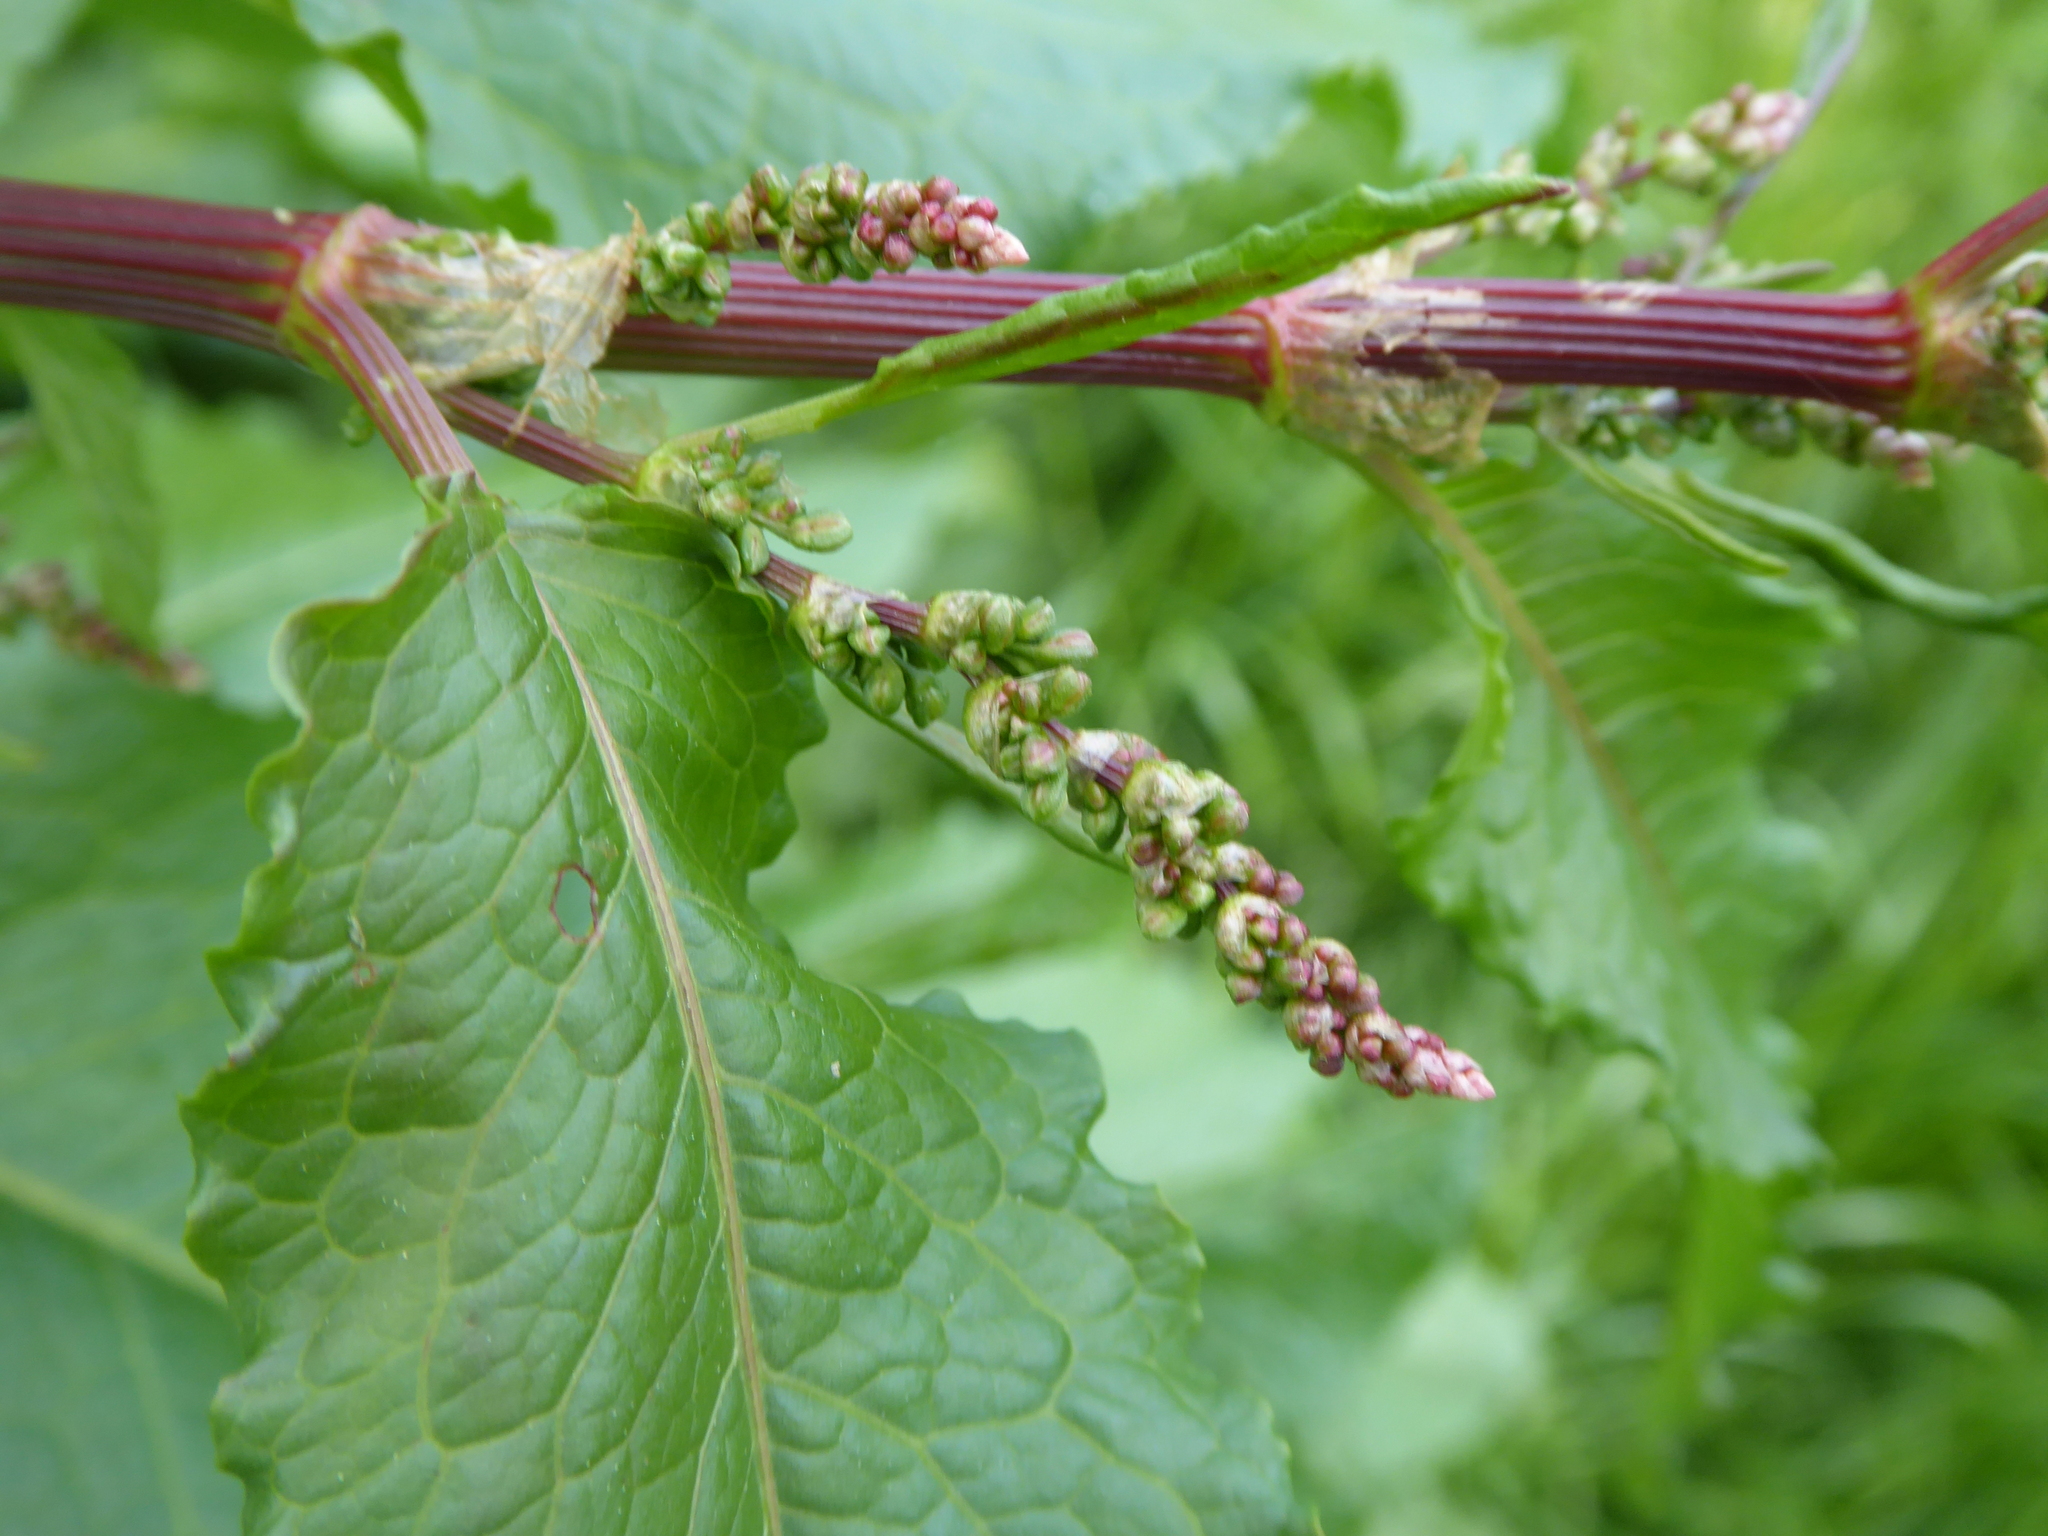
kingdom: Plantae
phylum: Tracheophyta
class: Magnoliopsida
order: Caryophyllales
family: Polygonaceae
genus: Rumex
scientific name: Rumex obtusifolius
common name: Bitter dock
